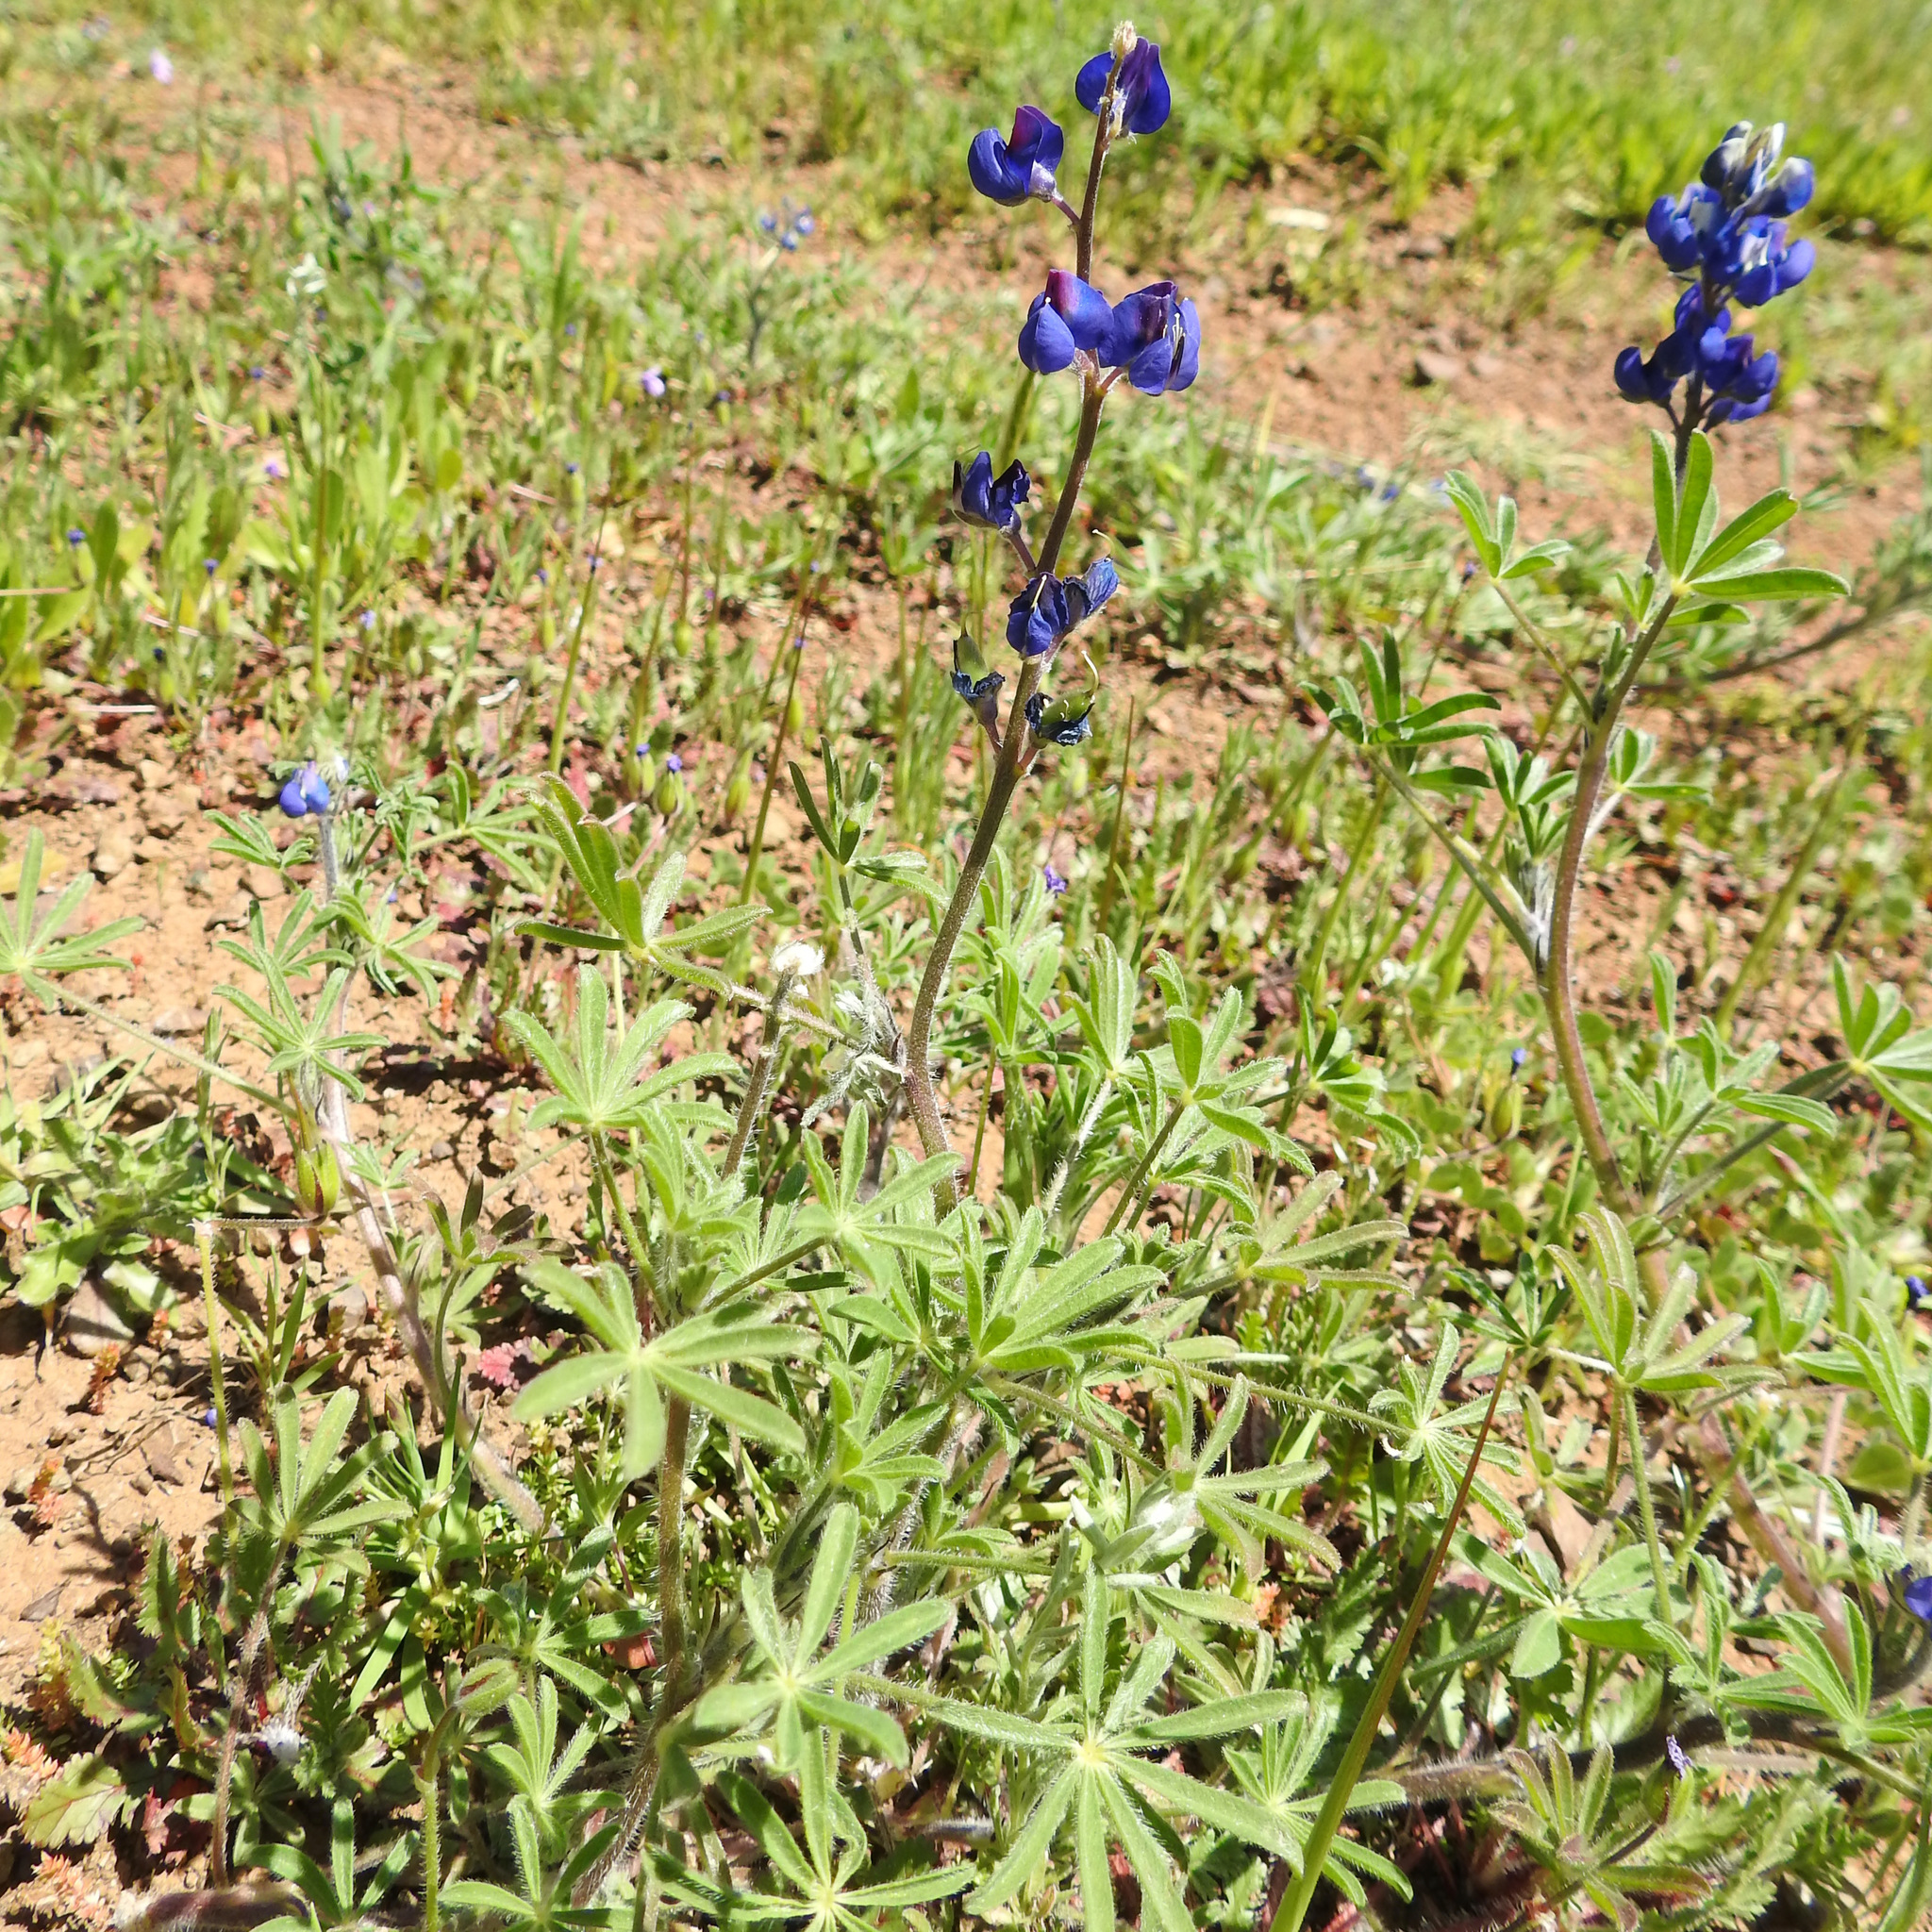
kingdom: Plantae
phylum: Tracheophyta
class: Magnoliopsida
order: Fabales
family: Fabaceae
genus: Lupinus
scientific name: Lupinus bicolor
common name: Miniature lupine
